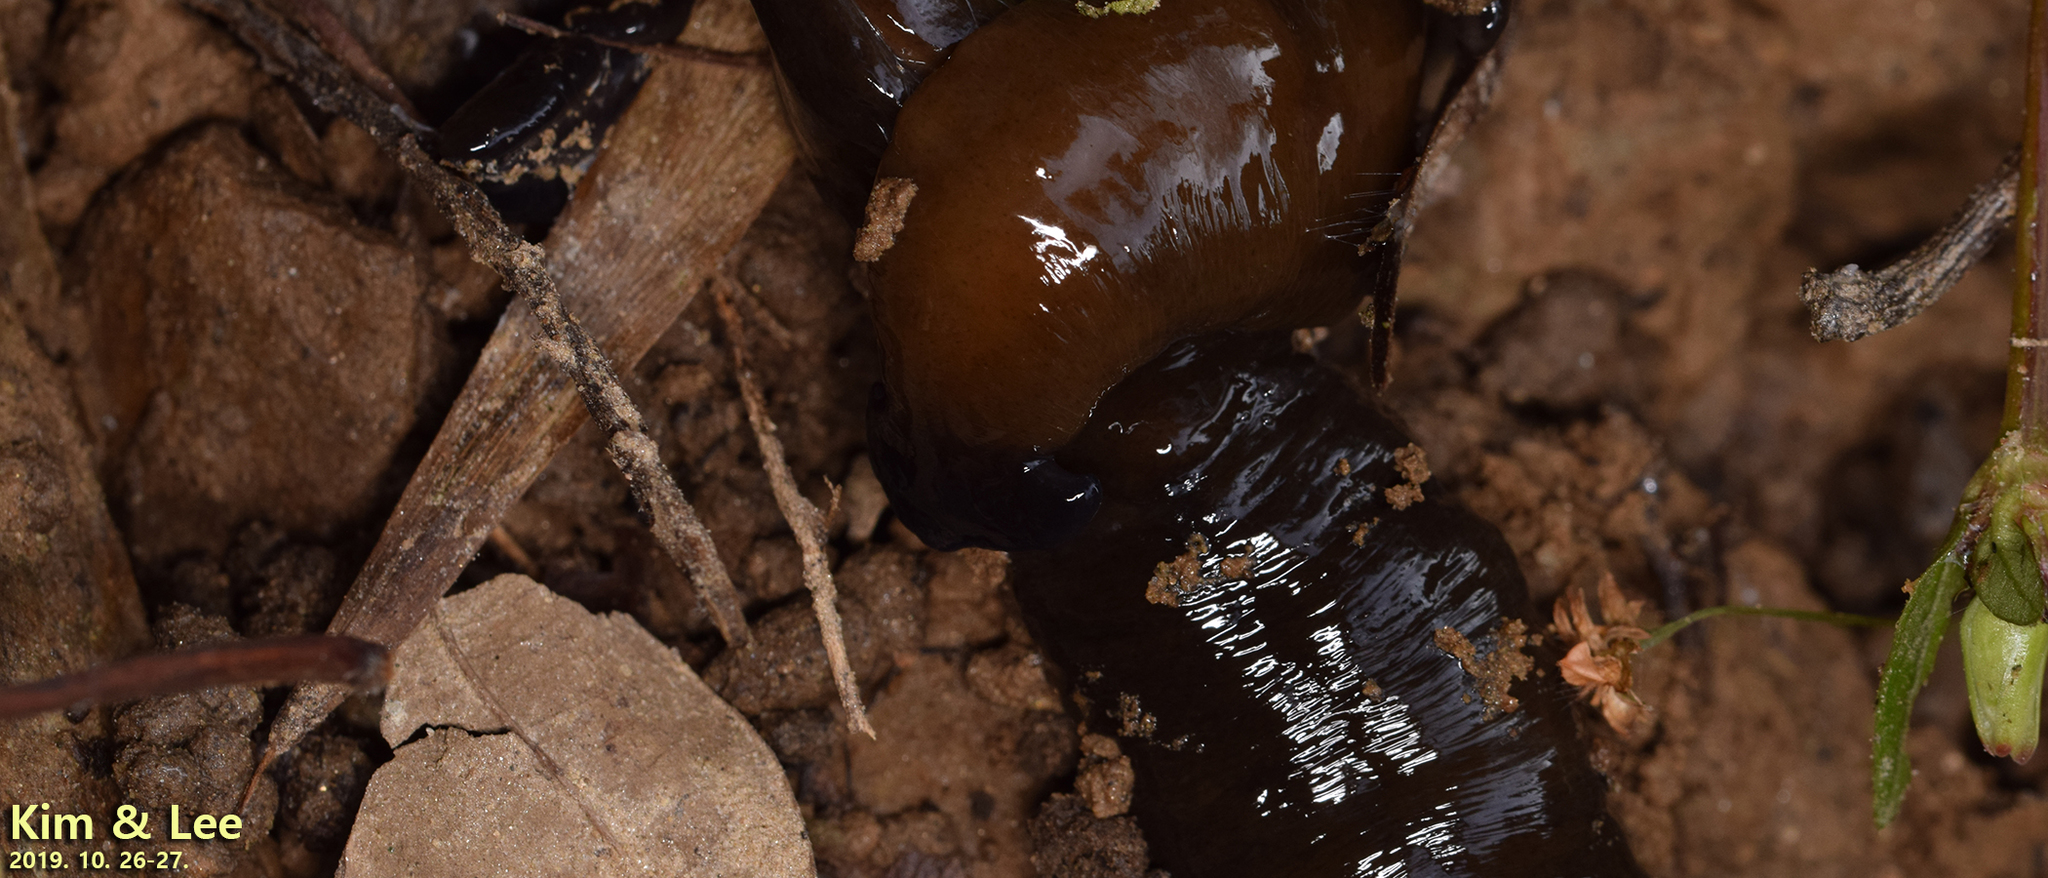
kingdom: Animalia
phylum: Platyhelminthes
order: Tricladida
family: Geoplanidae
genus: Bipalium
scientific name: Bipalium fuscolineatum
